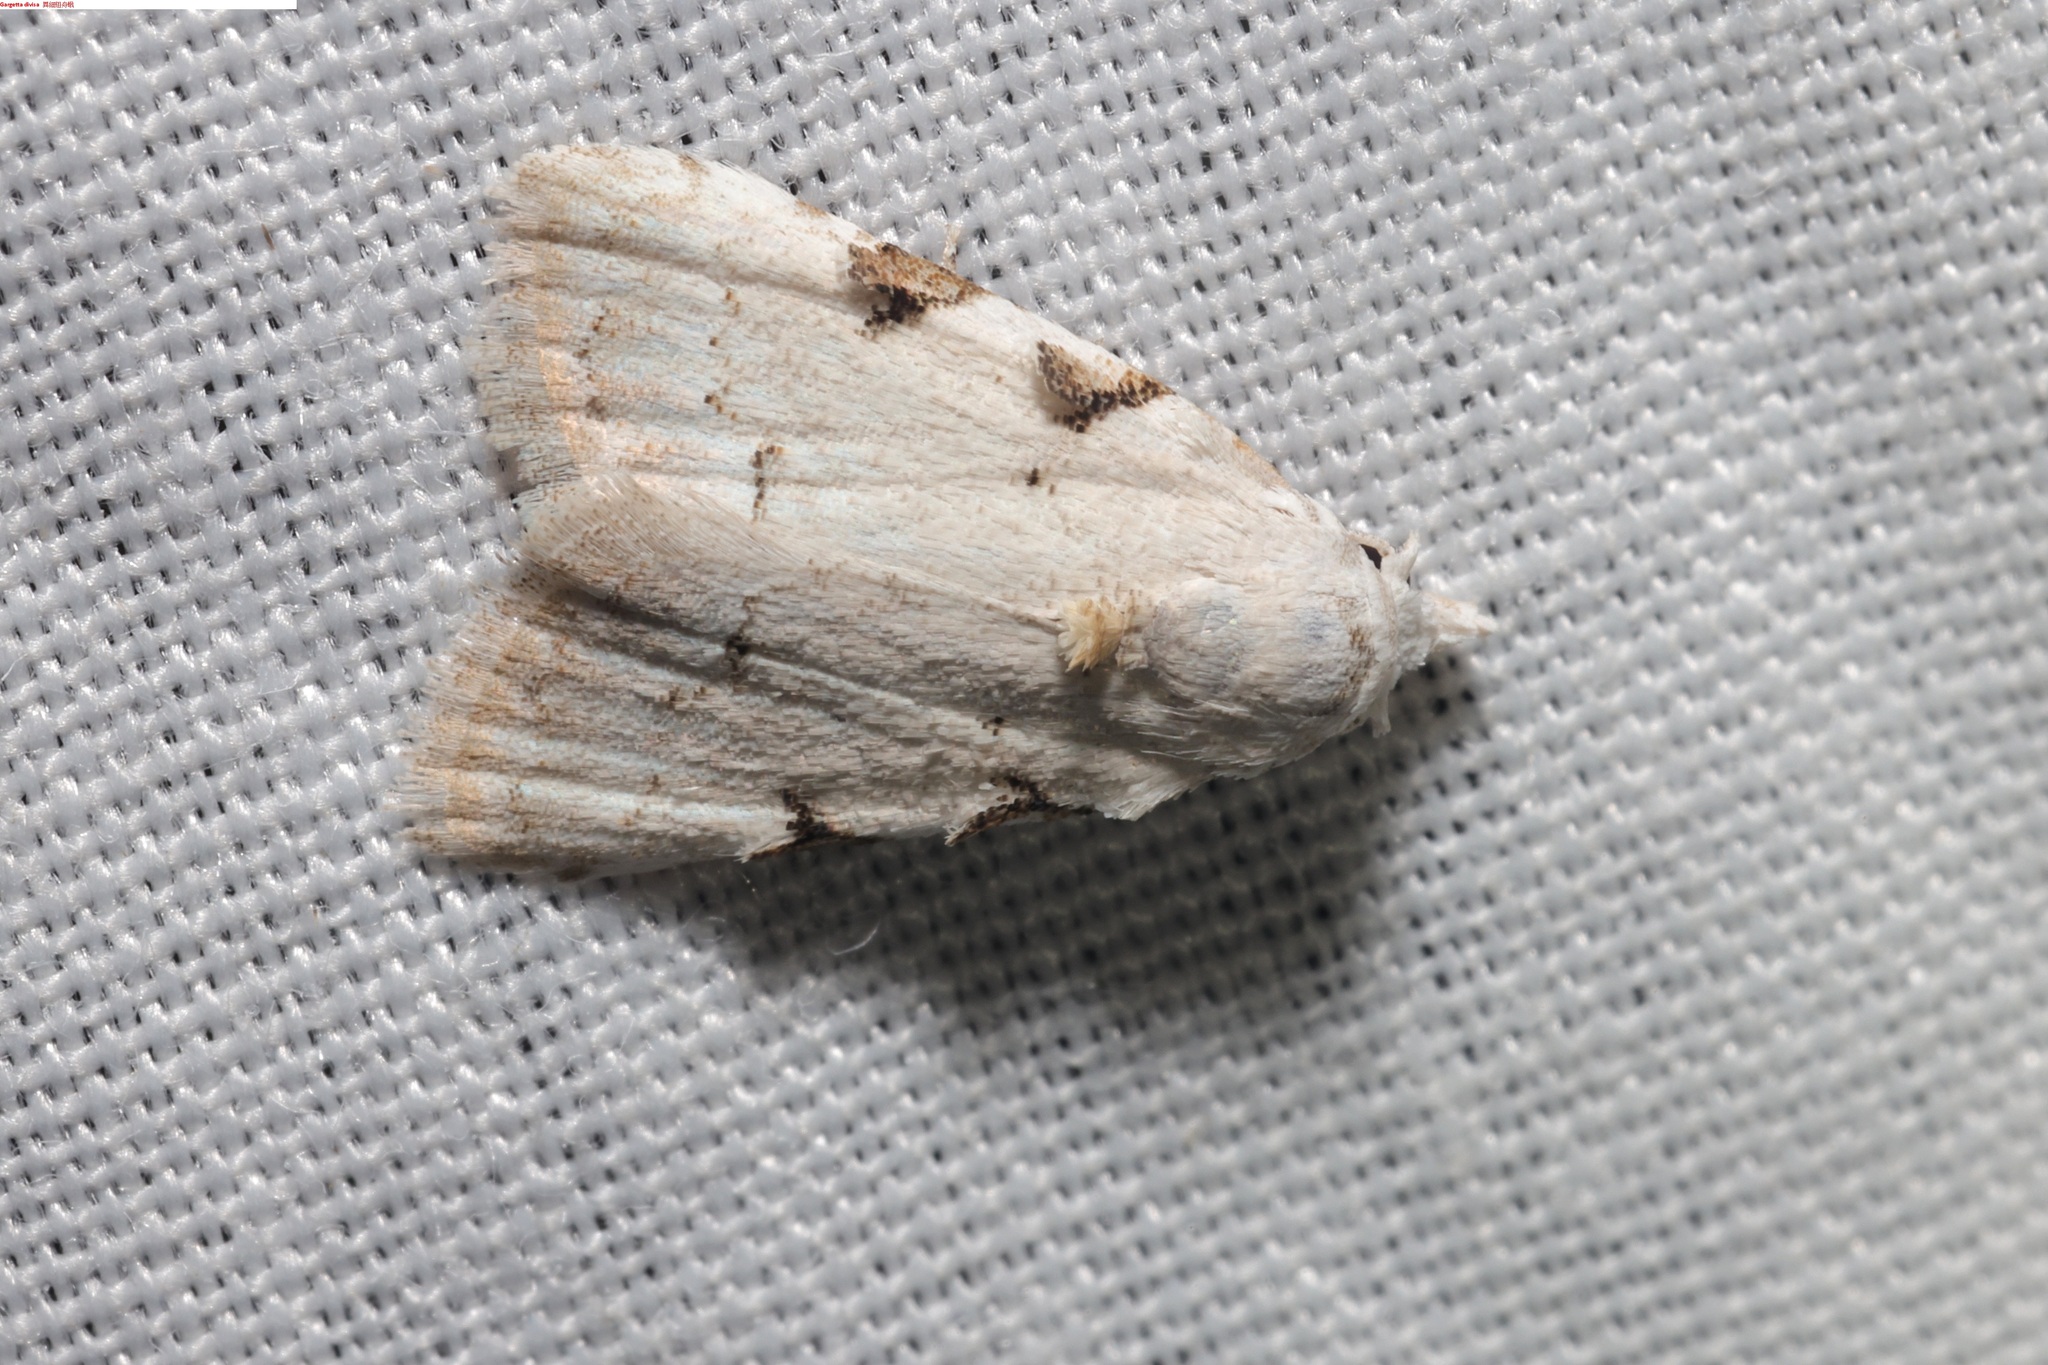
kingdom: Animalia
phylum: Arthropoda
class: Insecta
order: Lepidoptera
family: Nolidae
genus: Nola
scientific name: Nola pascua
